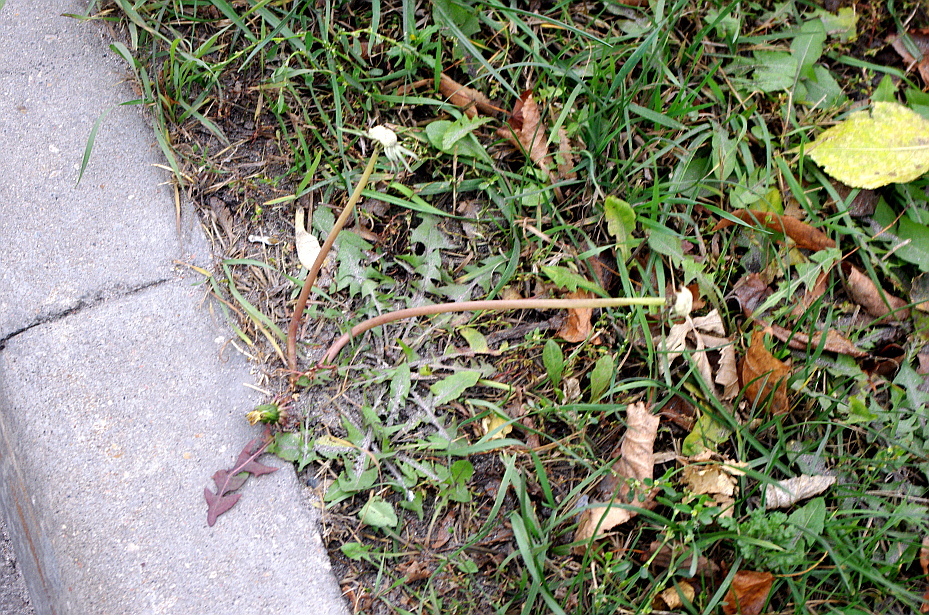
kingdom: Plantae
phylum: Tracheophyta
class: Magnoliopsida
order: Asterales
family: Asteraceae
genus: Taraxacum
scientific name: Taraxacum officinale
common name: Common dandelion
